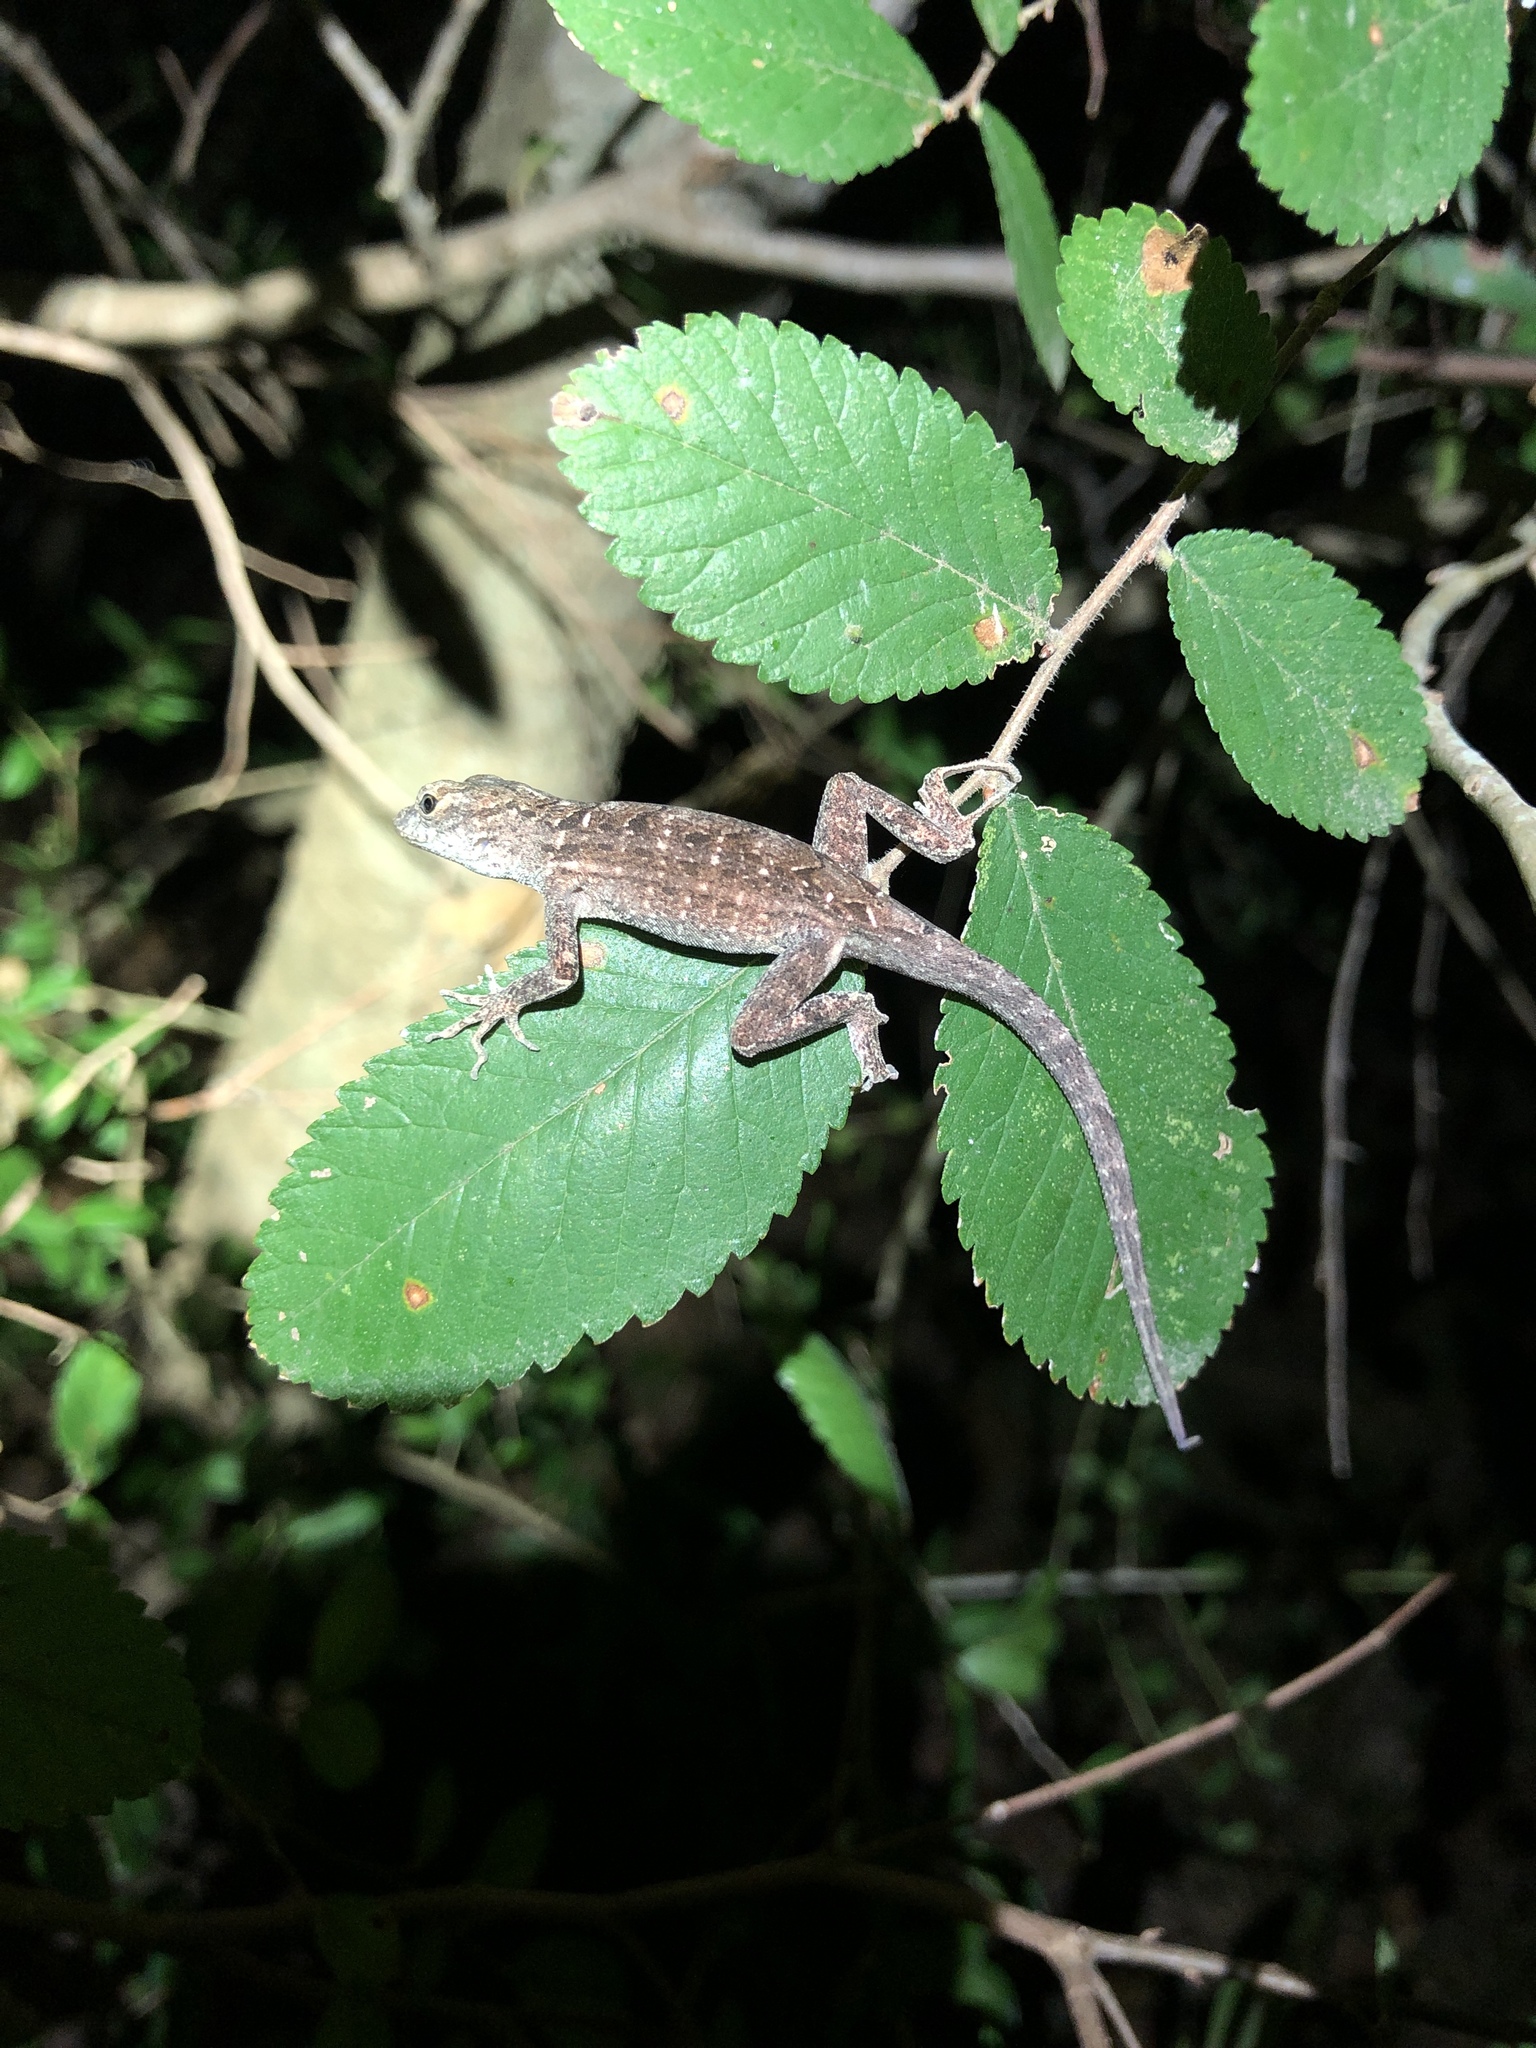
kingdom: Animalia
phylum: Chordata
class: Squamata
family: Dactyloidae
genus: Anolis
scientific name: Anolis sagrei
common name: Brown anole
